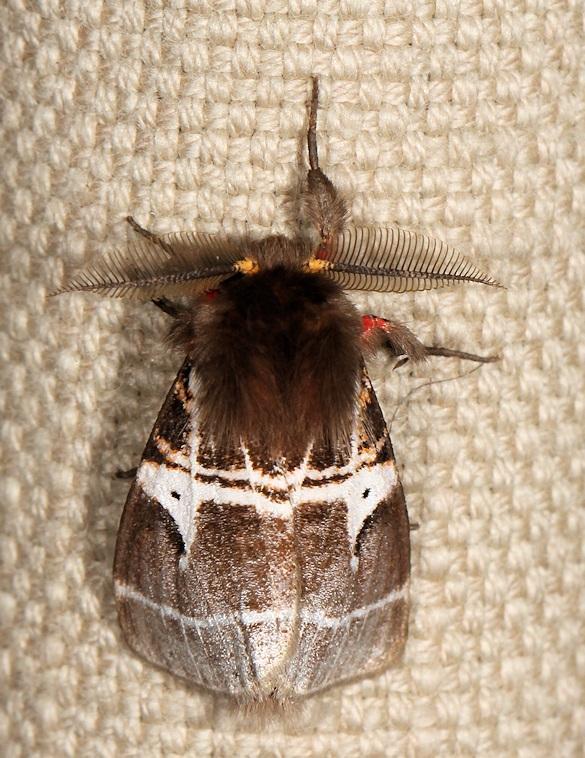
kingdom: Animalia
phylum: Arthropoda
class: Insecta
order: Lepidoptera
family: Erebidae
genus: Lymantria
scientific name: Lymantria Morasa modesta
